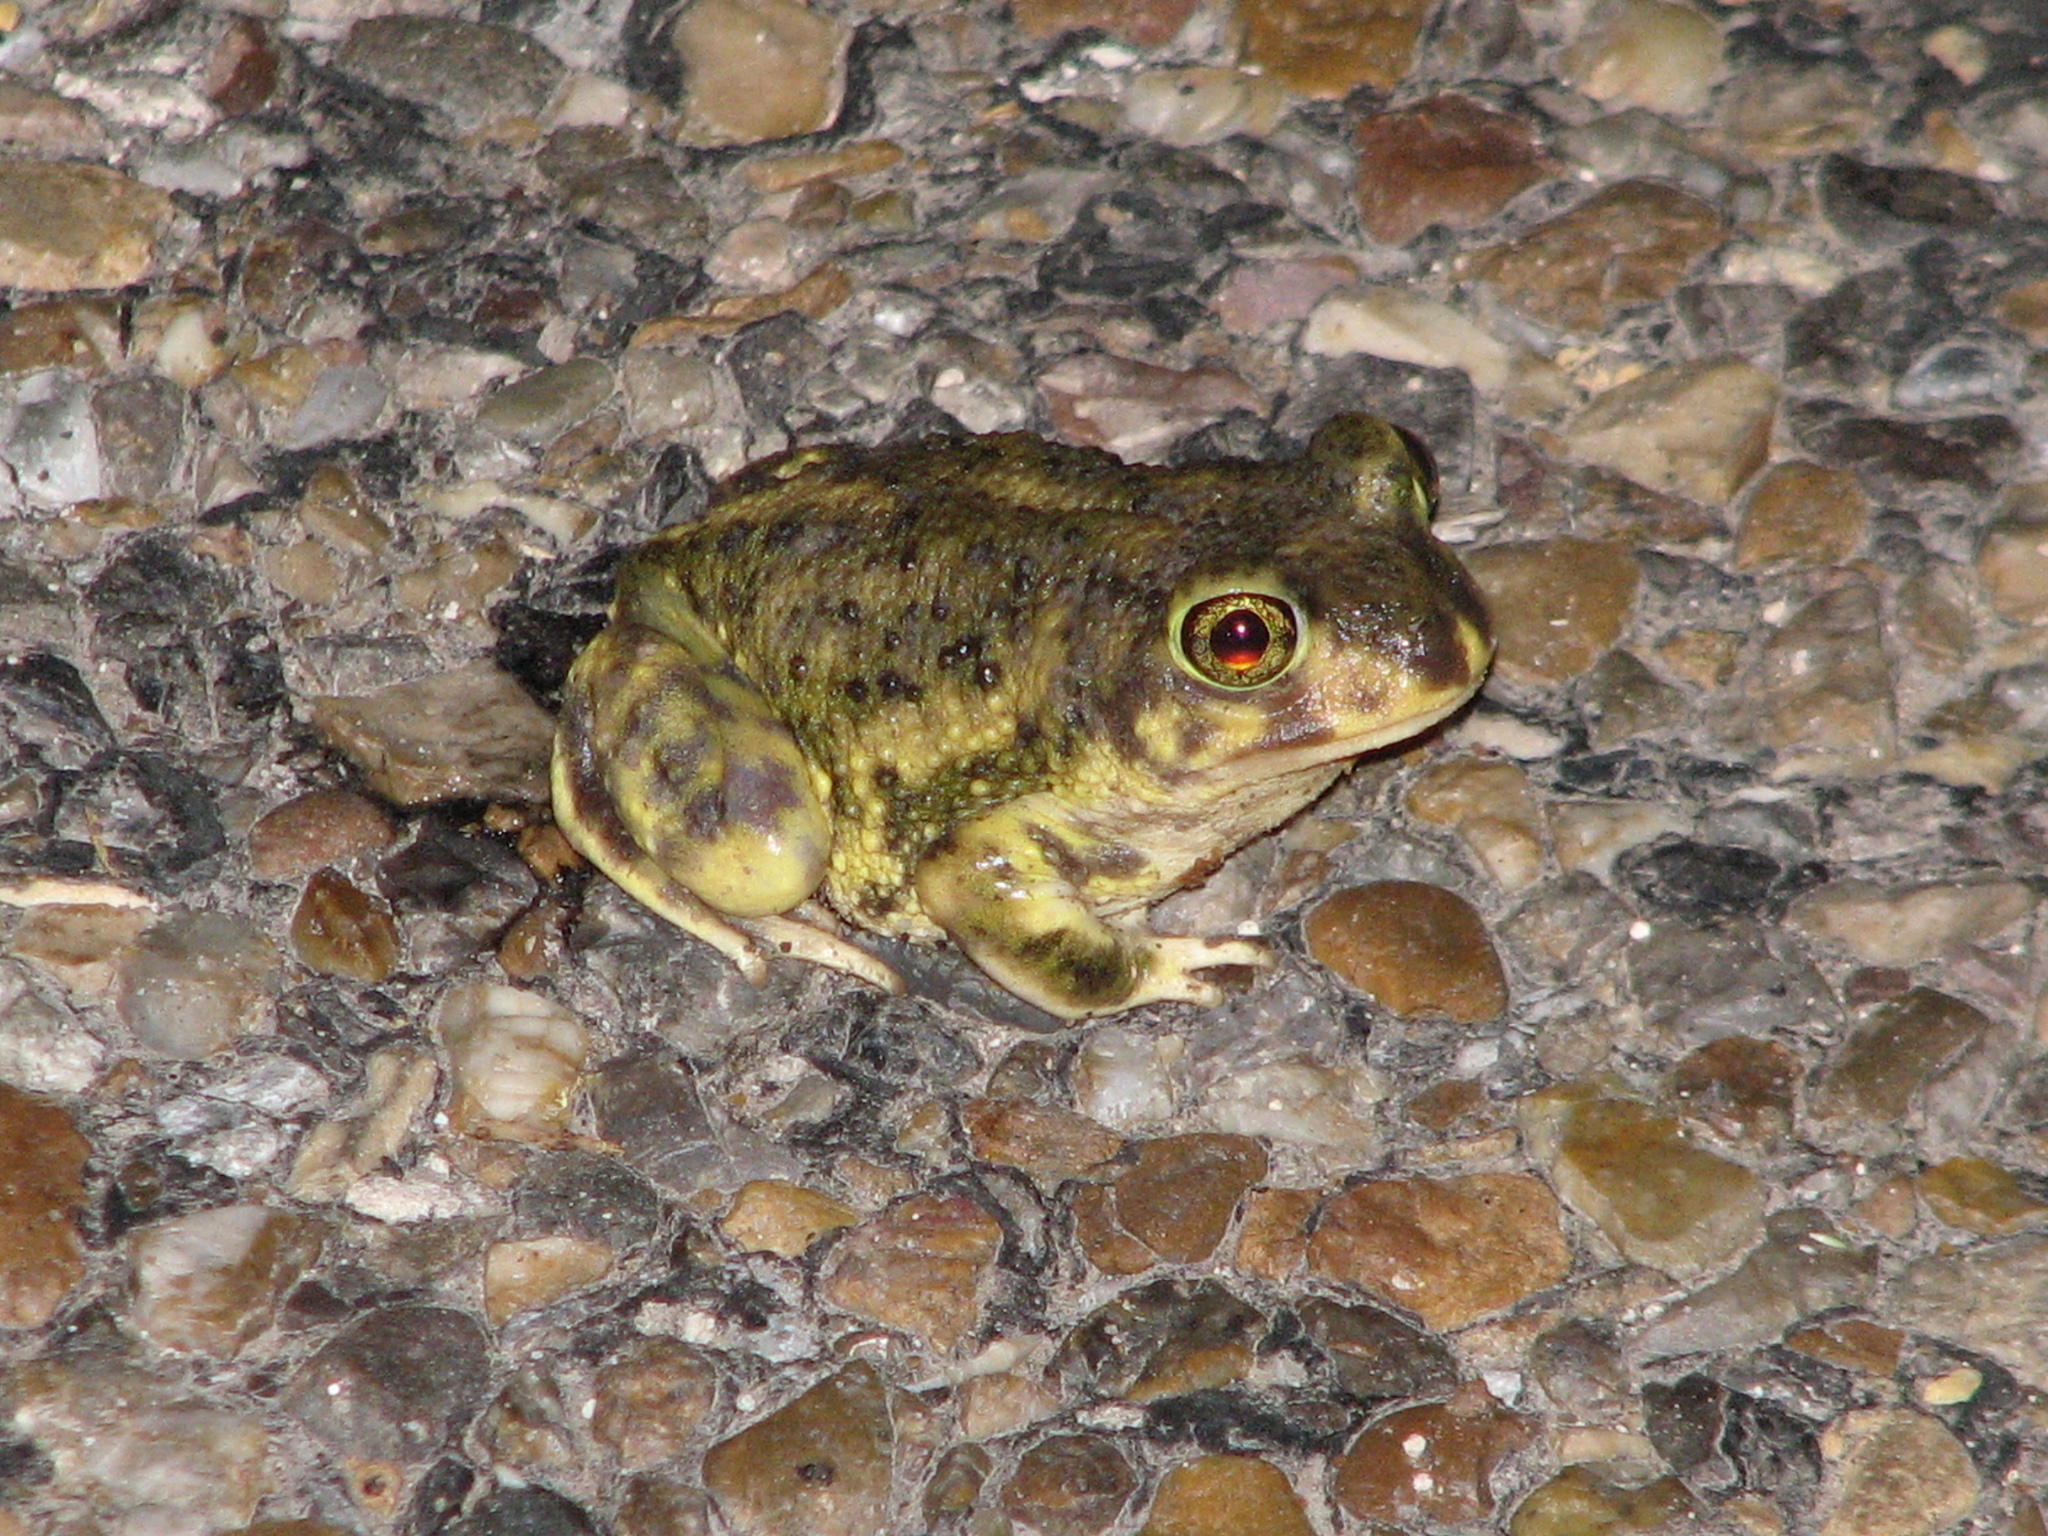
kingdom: Animalia
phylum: Chordata
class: Amphibia
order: Anura
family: Scaphiopodidae
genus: Scaphiopus
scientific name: Scaphiopus couchii
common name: Couch's spadefoot toad
